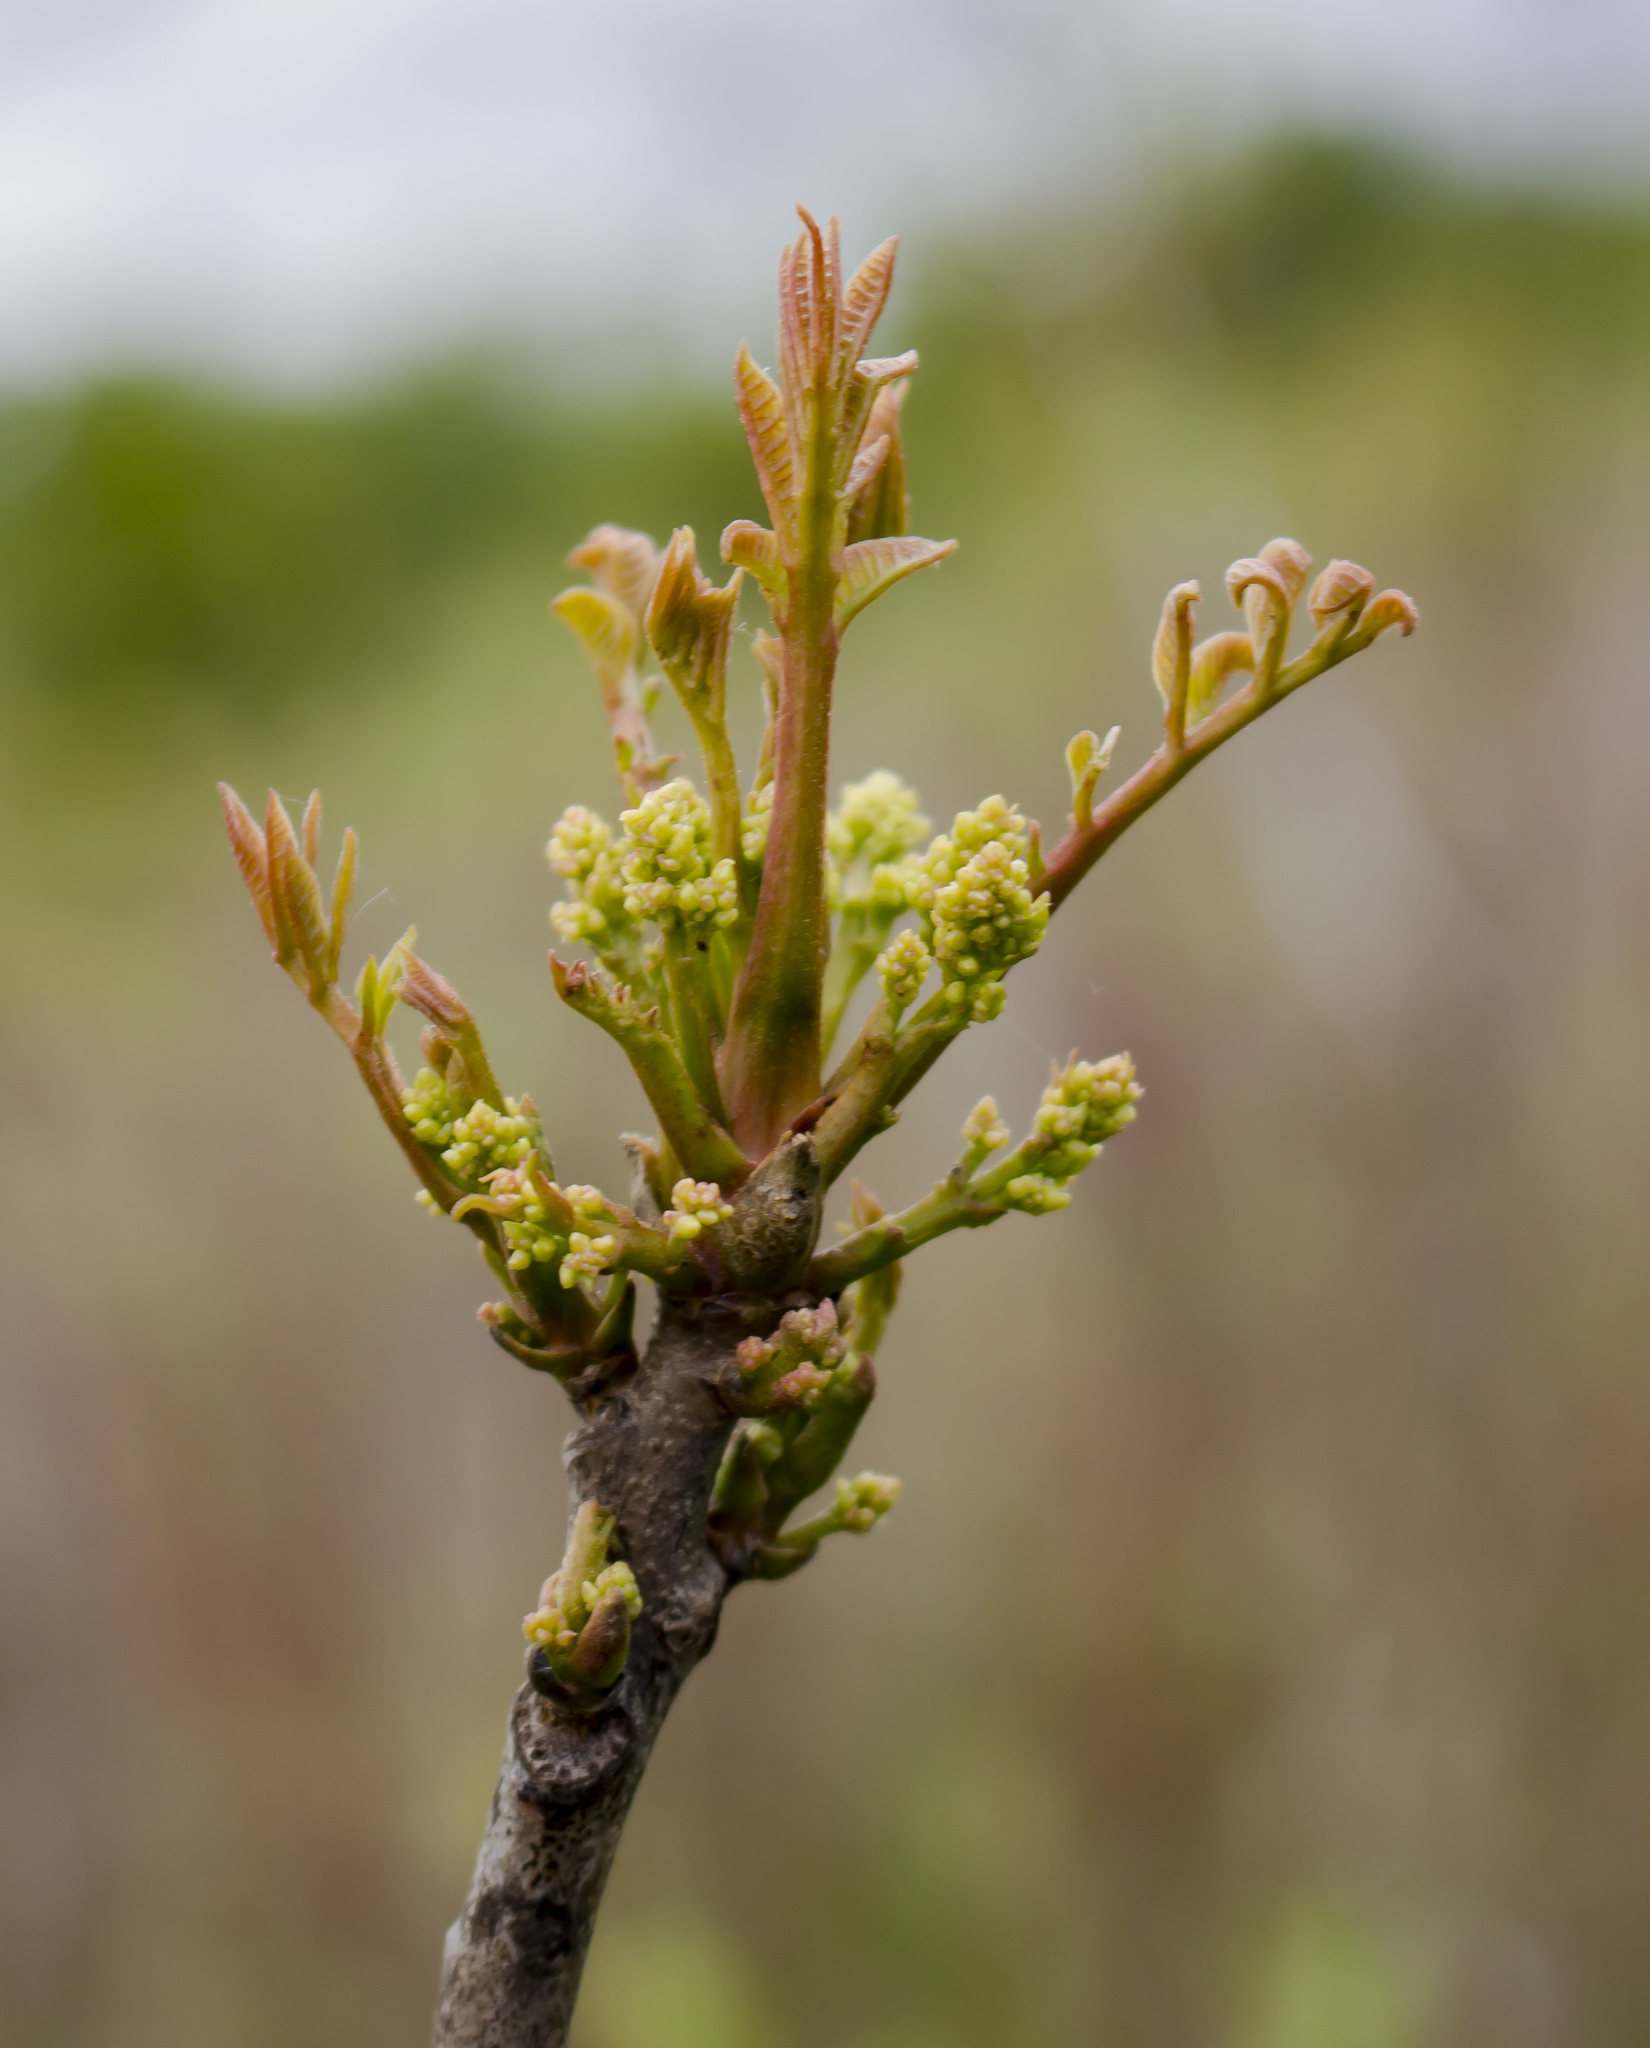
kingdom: Plantae
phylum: Tracheophyta
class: Magnoliopsida
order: Sapindales
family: Anacardiaceae
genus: Toxicodendron
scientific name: Toxicodendron vernix
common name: Poison sumac
